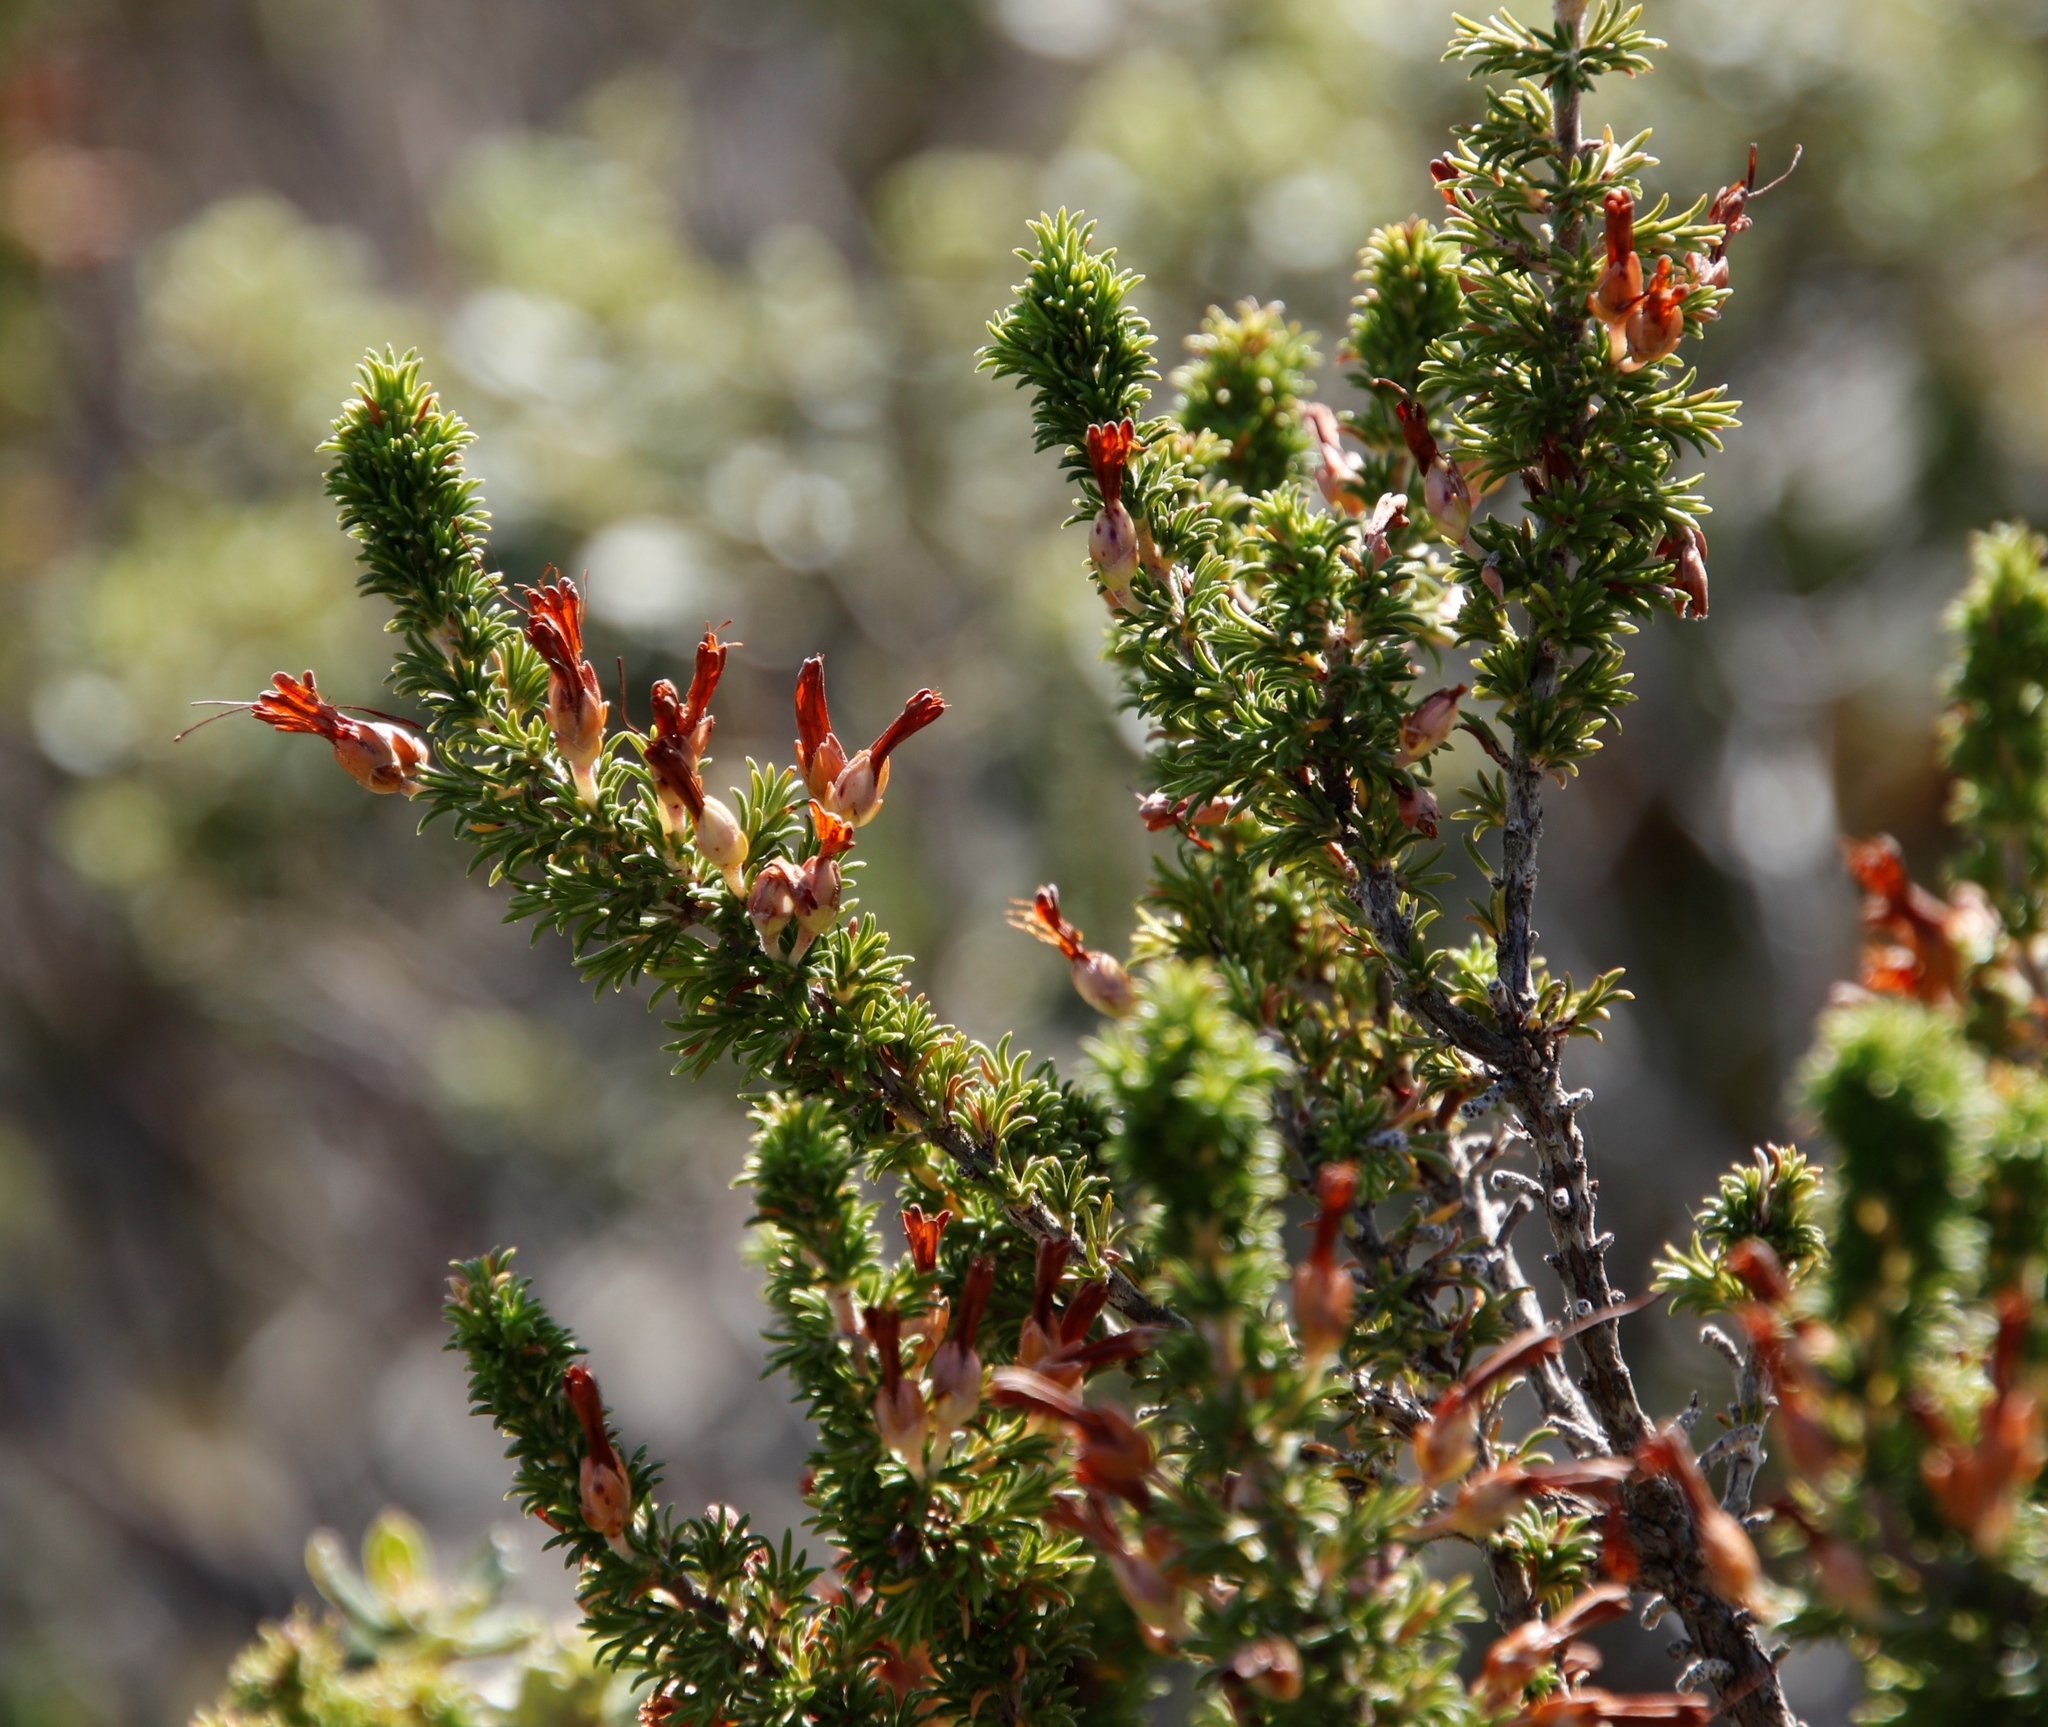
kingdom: Plantae
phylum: Tracheophyta
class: Magnoliopsida
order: Ericales
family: Ericaceae
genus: Erica
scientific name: Erica coccinea
